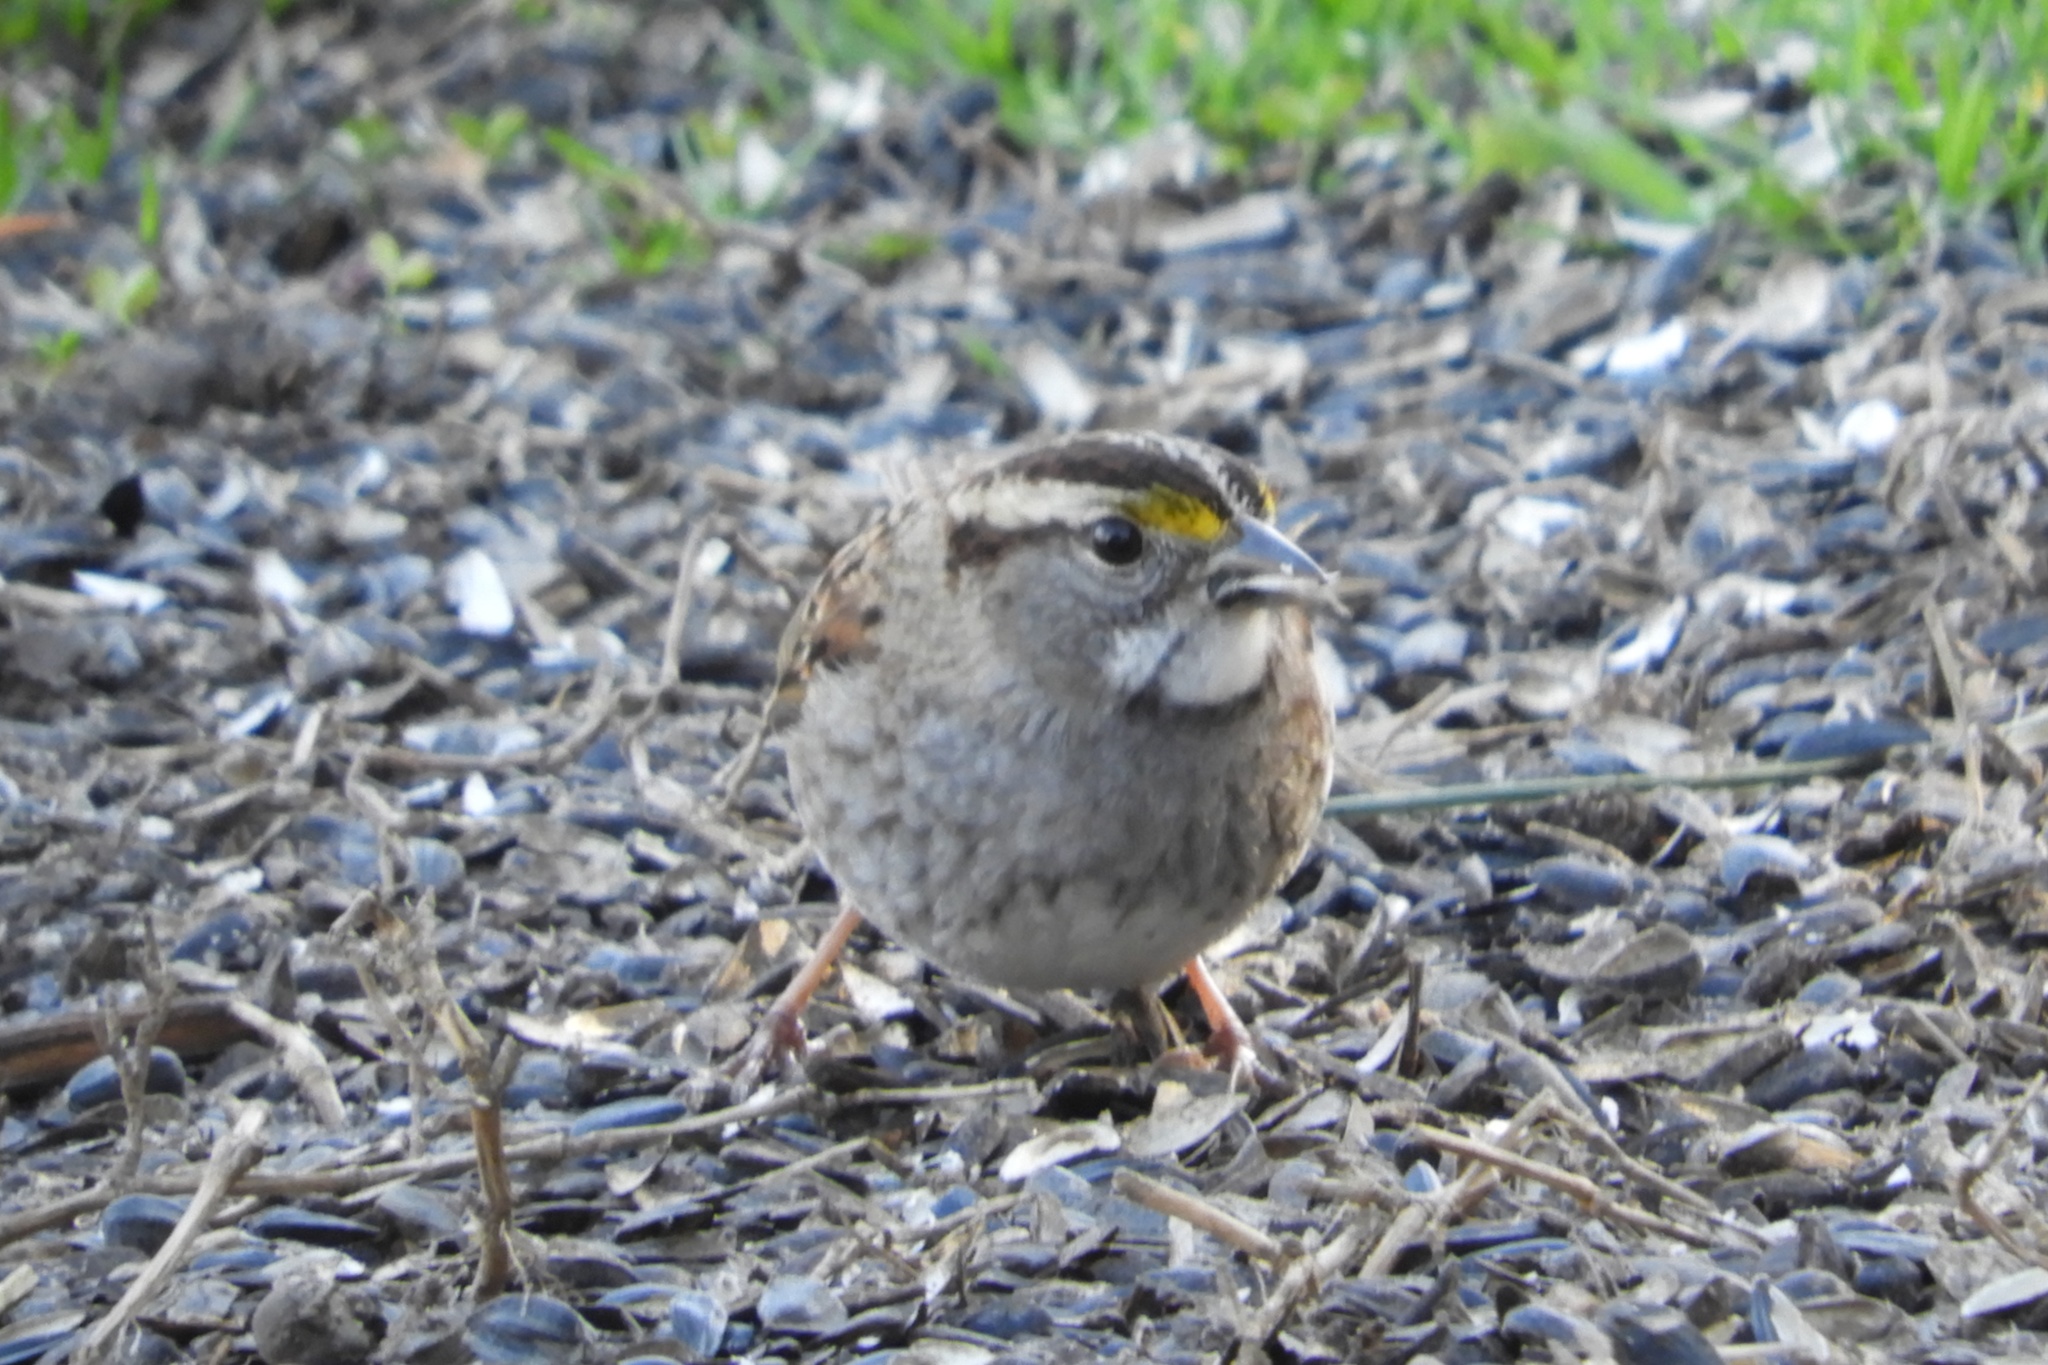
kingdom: Animalia
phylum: Chordata
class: Aves
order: Passeriformes
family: Passerellidae
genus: Zonotrichia
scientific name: Zonotrichia albicollis
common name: White-throated sparrow
